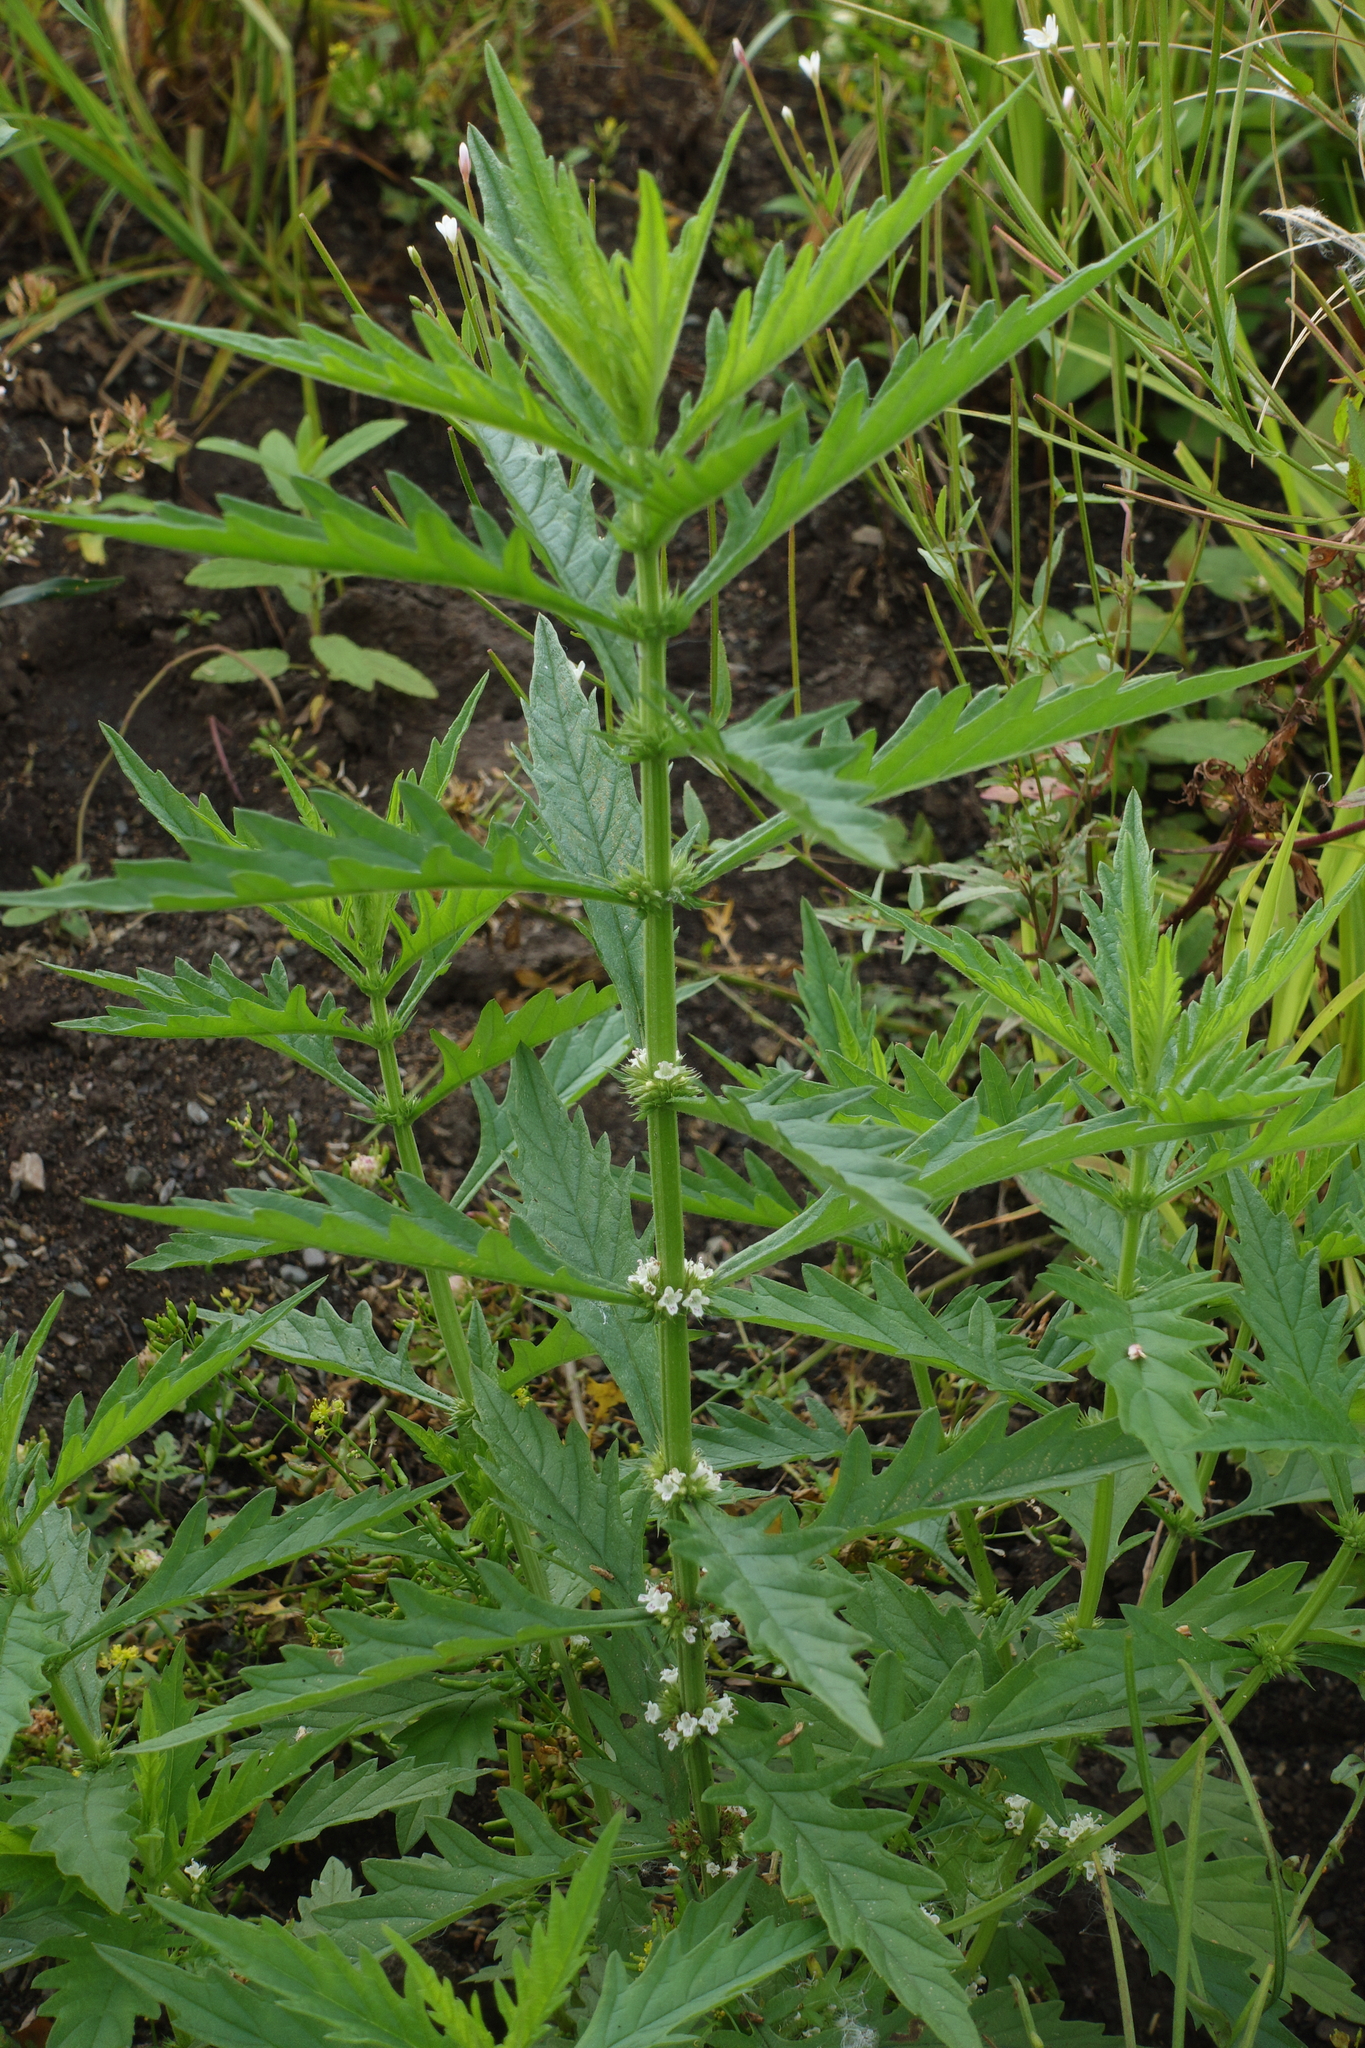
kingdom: Plantae
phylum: Tracheophyta
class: Magnoliopsida
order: Lamiales
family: Lamiaceae
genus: Lycopus
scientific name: Lycopus europaeus
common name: European bugleweed
